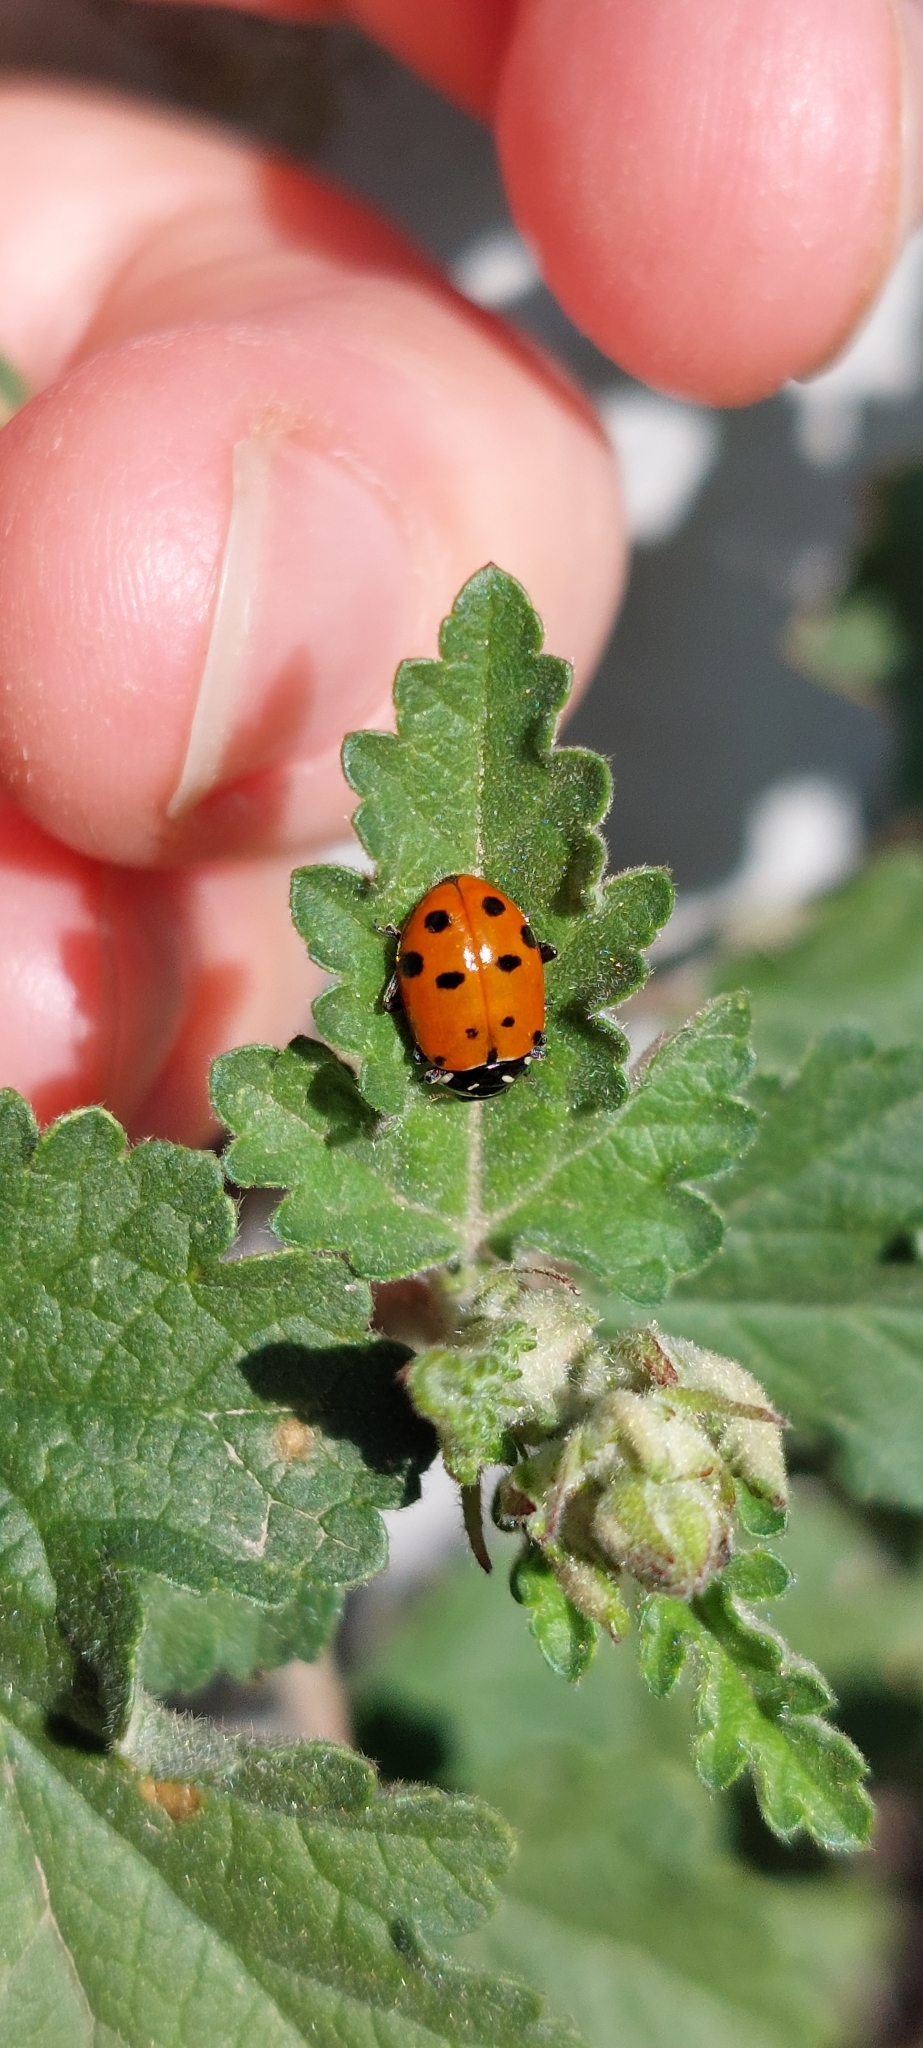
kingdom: Animalia
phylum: Arthropoda
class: Insecta
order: Coleoptera
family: Coccinellidae
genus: Hippodamia
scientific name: Hippodamia convergens
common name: Convergent lady beetle
